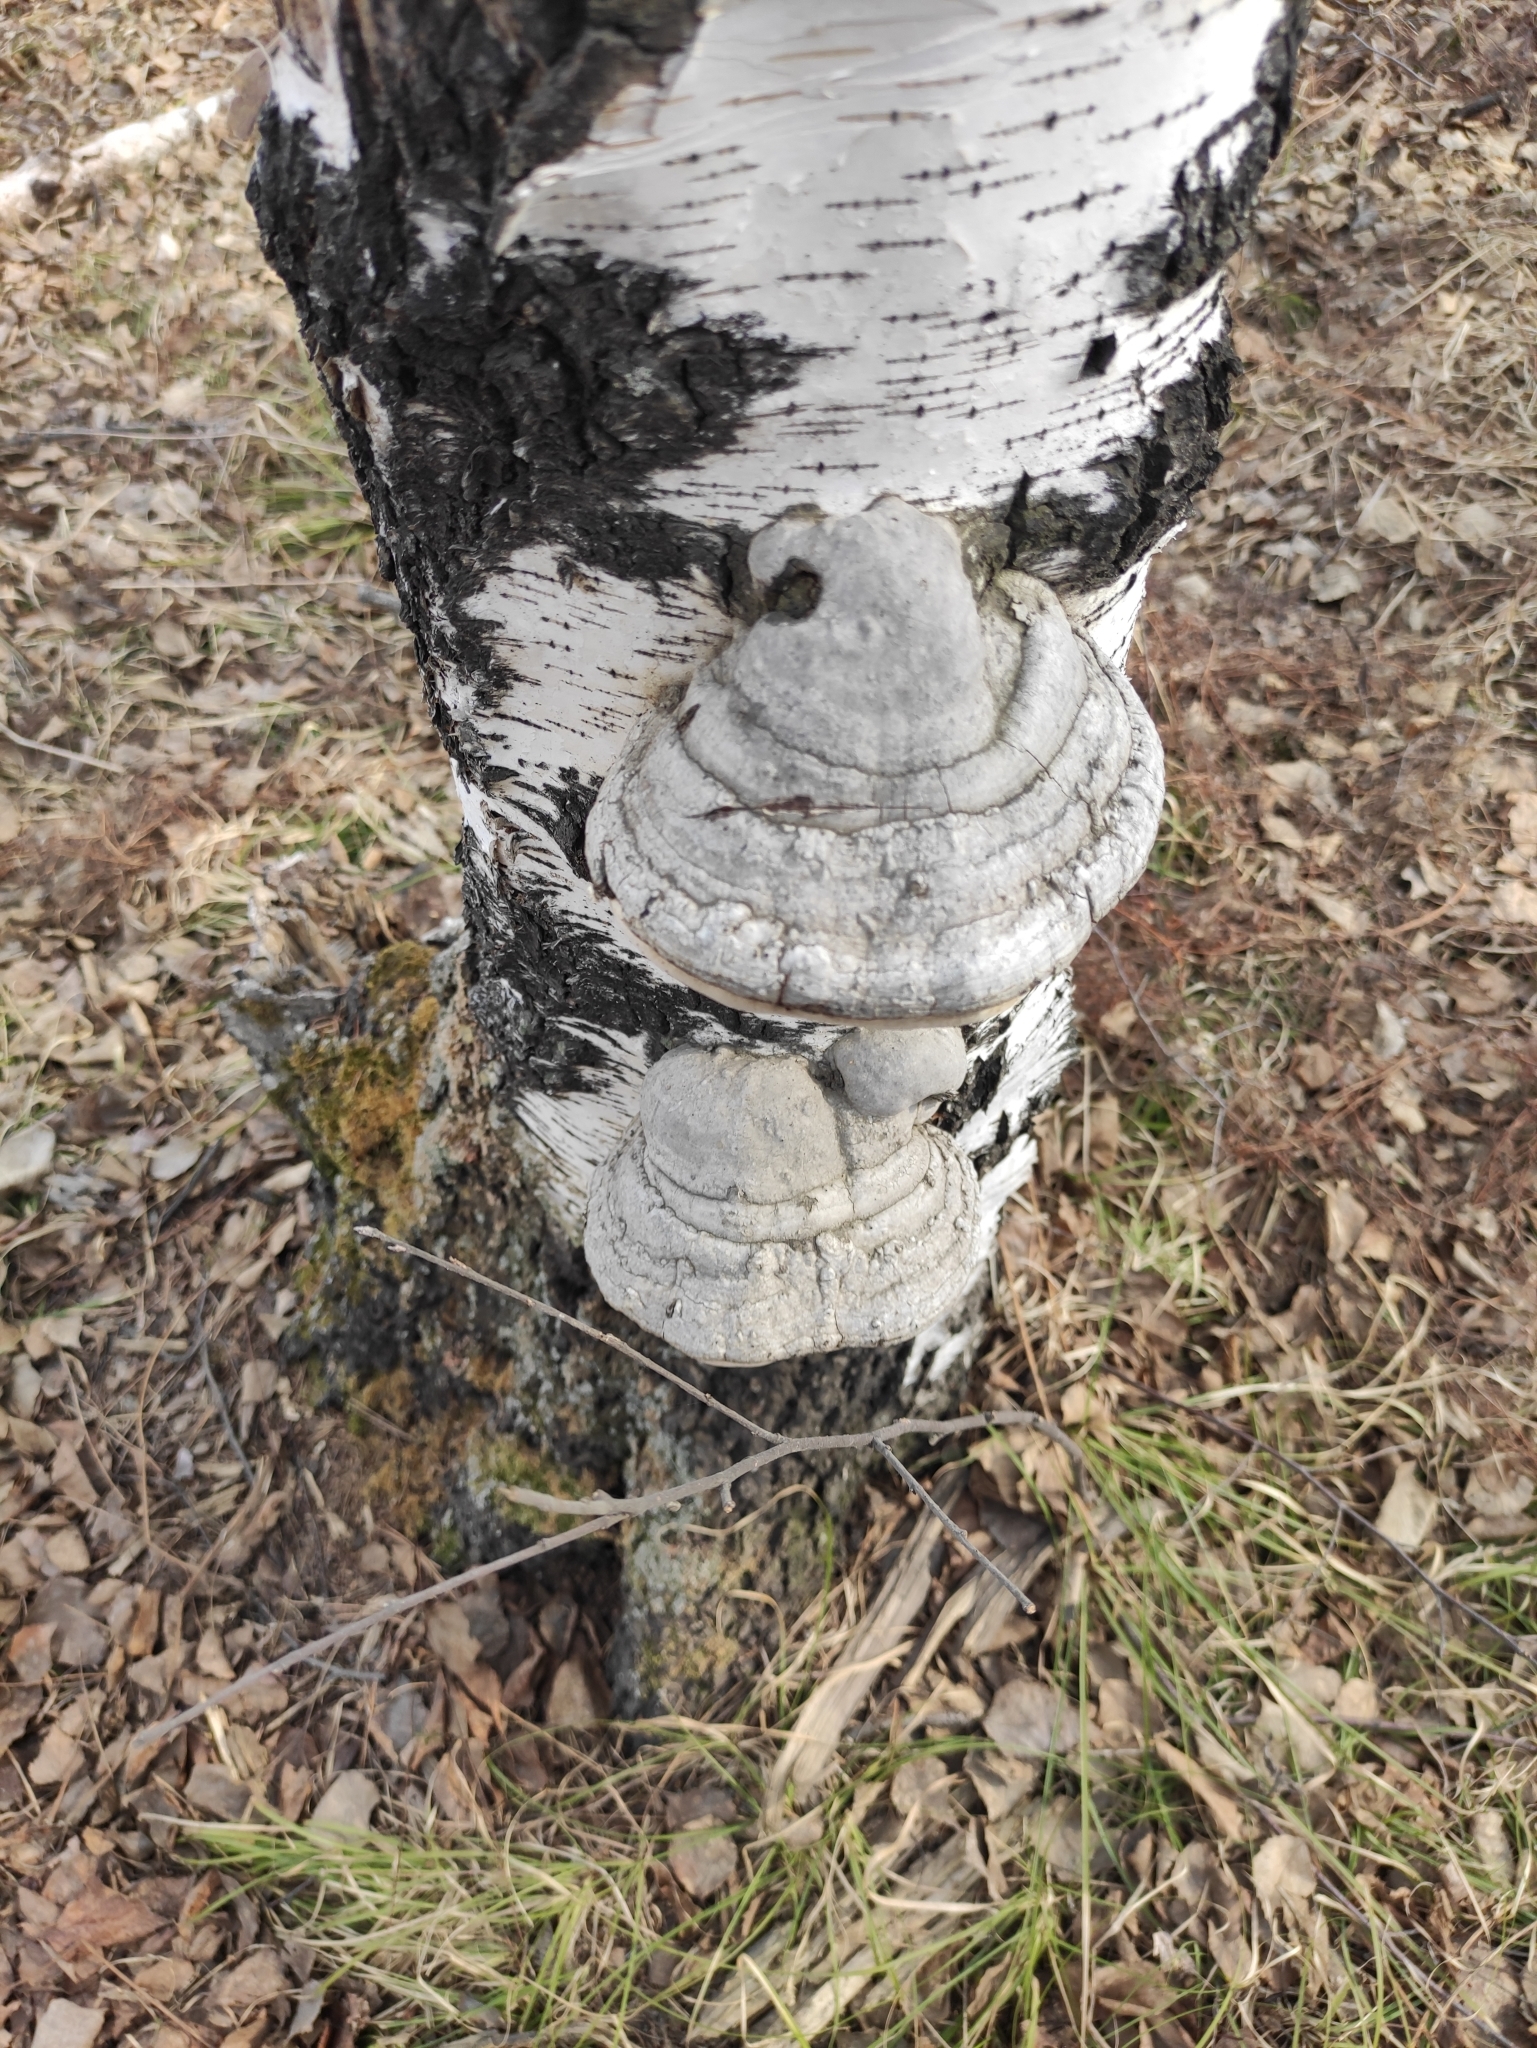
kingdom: Fungi
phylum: Basidiomycota
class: Agaricomycetes
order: Polyporales
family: Polyporaceae
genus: Fomes
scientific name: Fomes fomentarius
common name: Hoof fungus
